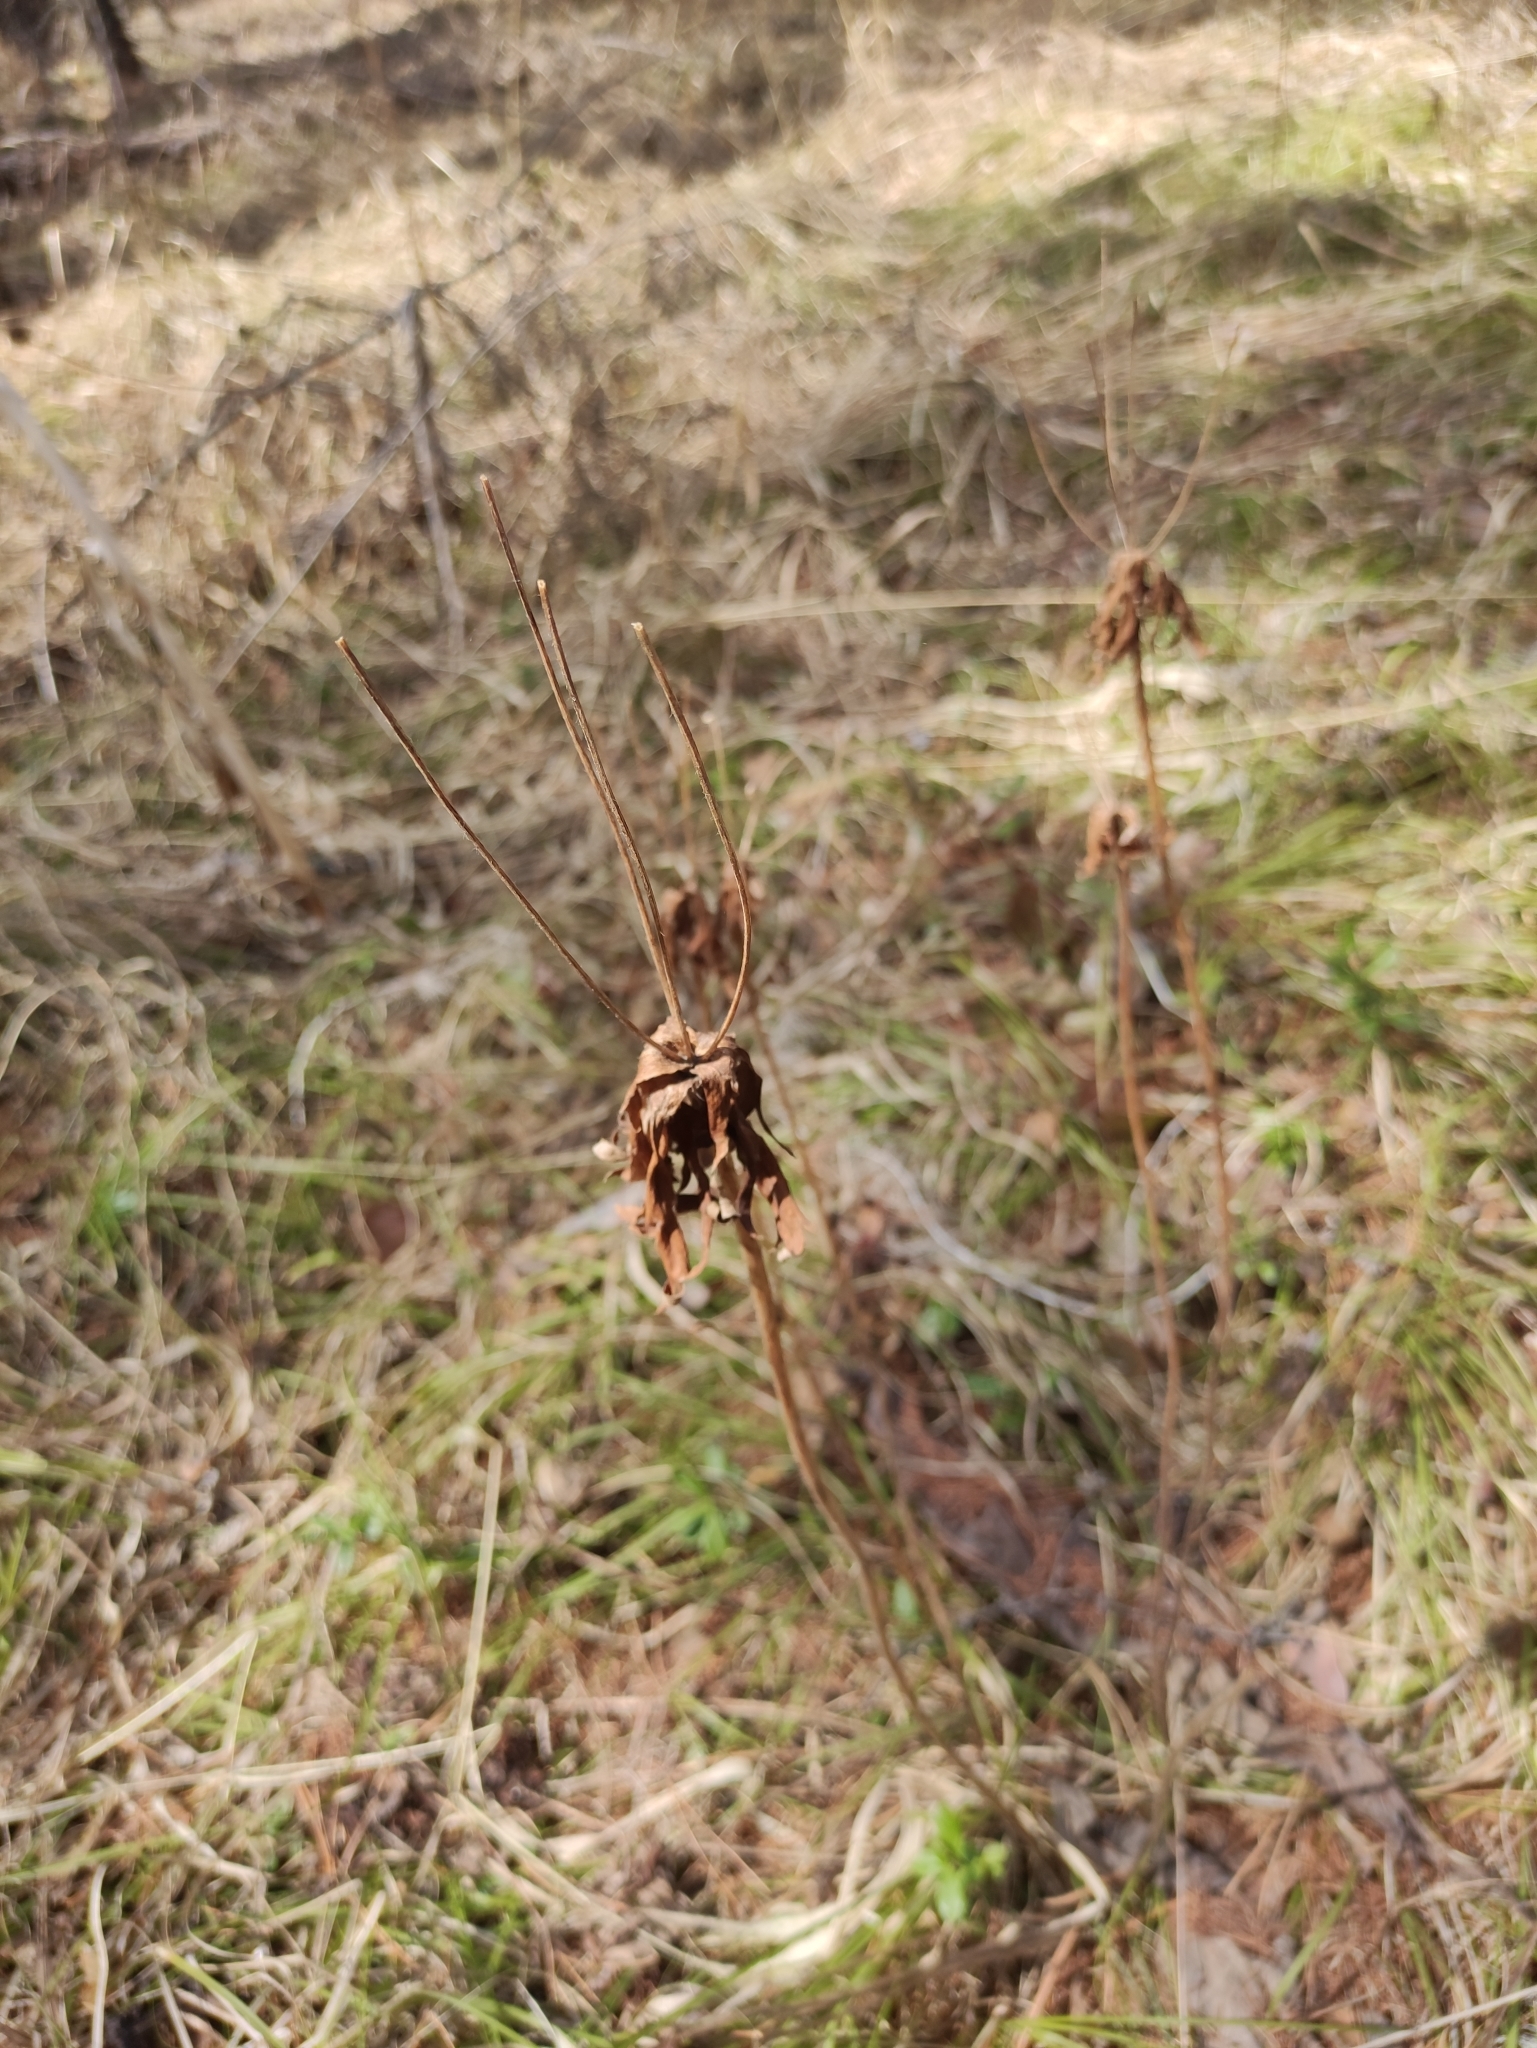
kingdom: Plantae
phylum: Tracheophyta
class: Magnoliopsida
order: Ranunculales
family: Ranunculaceae
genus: Anemonastrum
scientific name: Anemonastrum narcissiflorum
